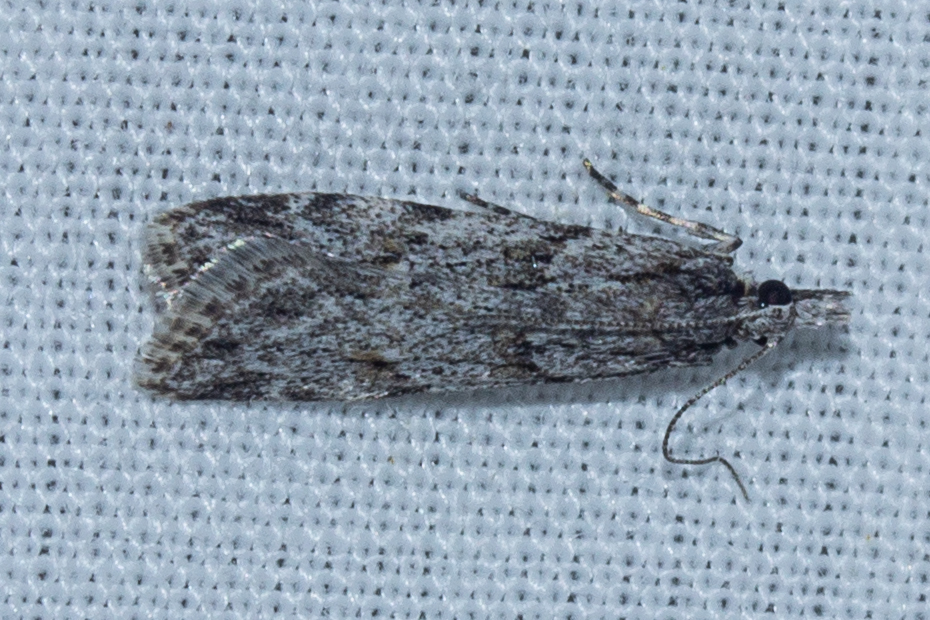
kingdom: Animalia
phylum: Arthropoda
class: Insecta
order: Lepidoptera
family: Crambidae
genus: Scoparia
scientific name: Scoparia chalicodes
